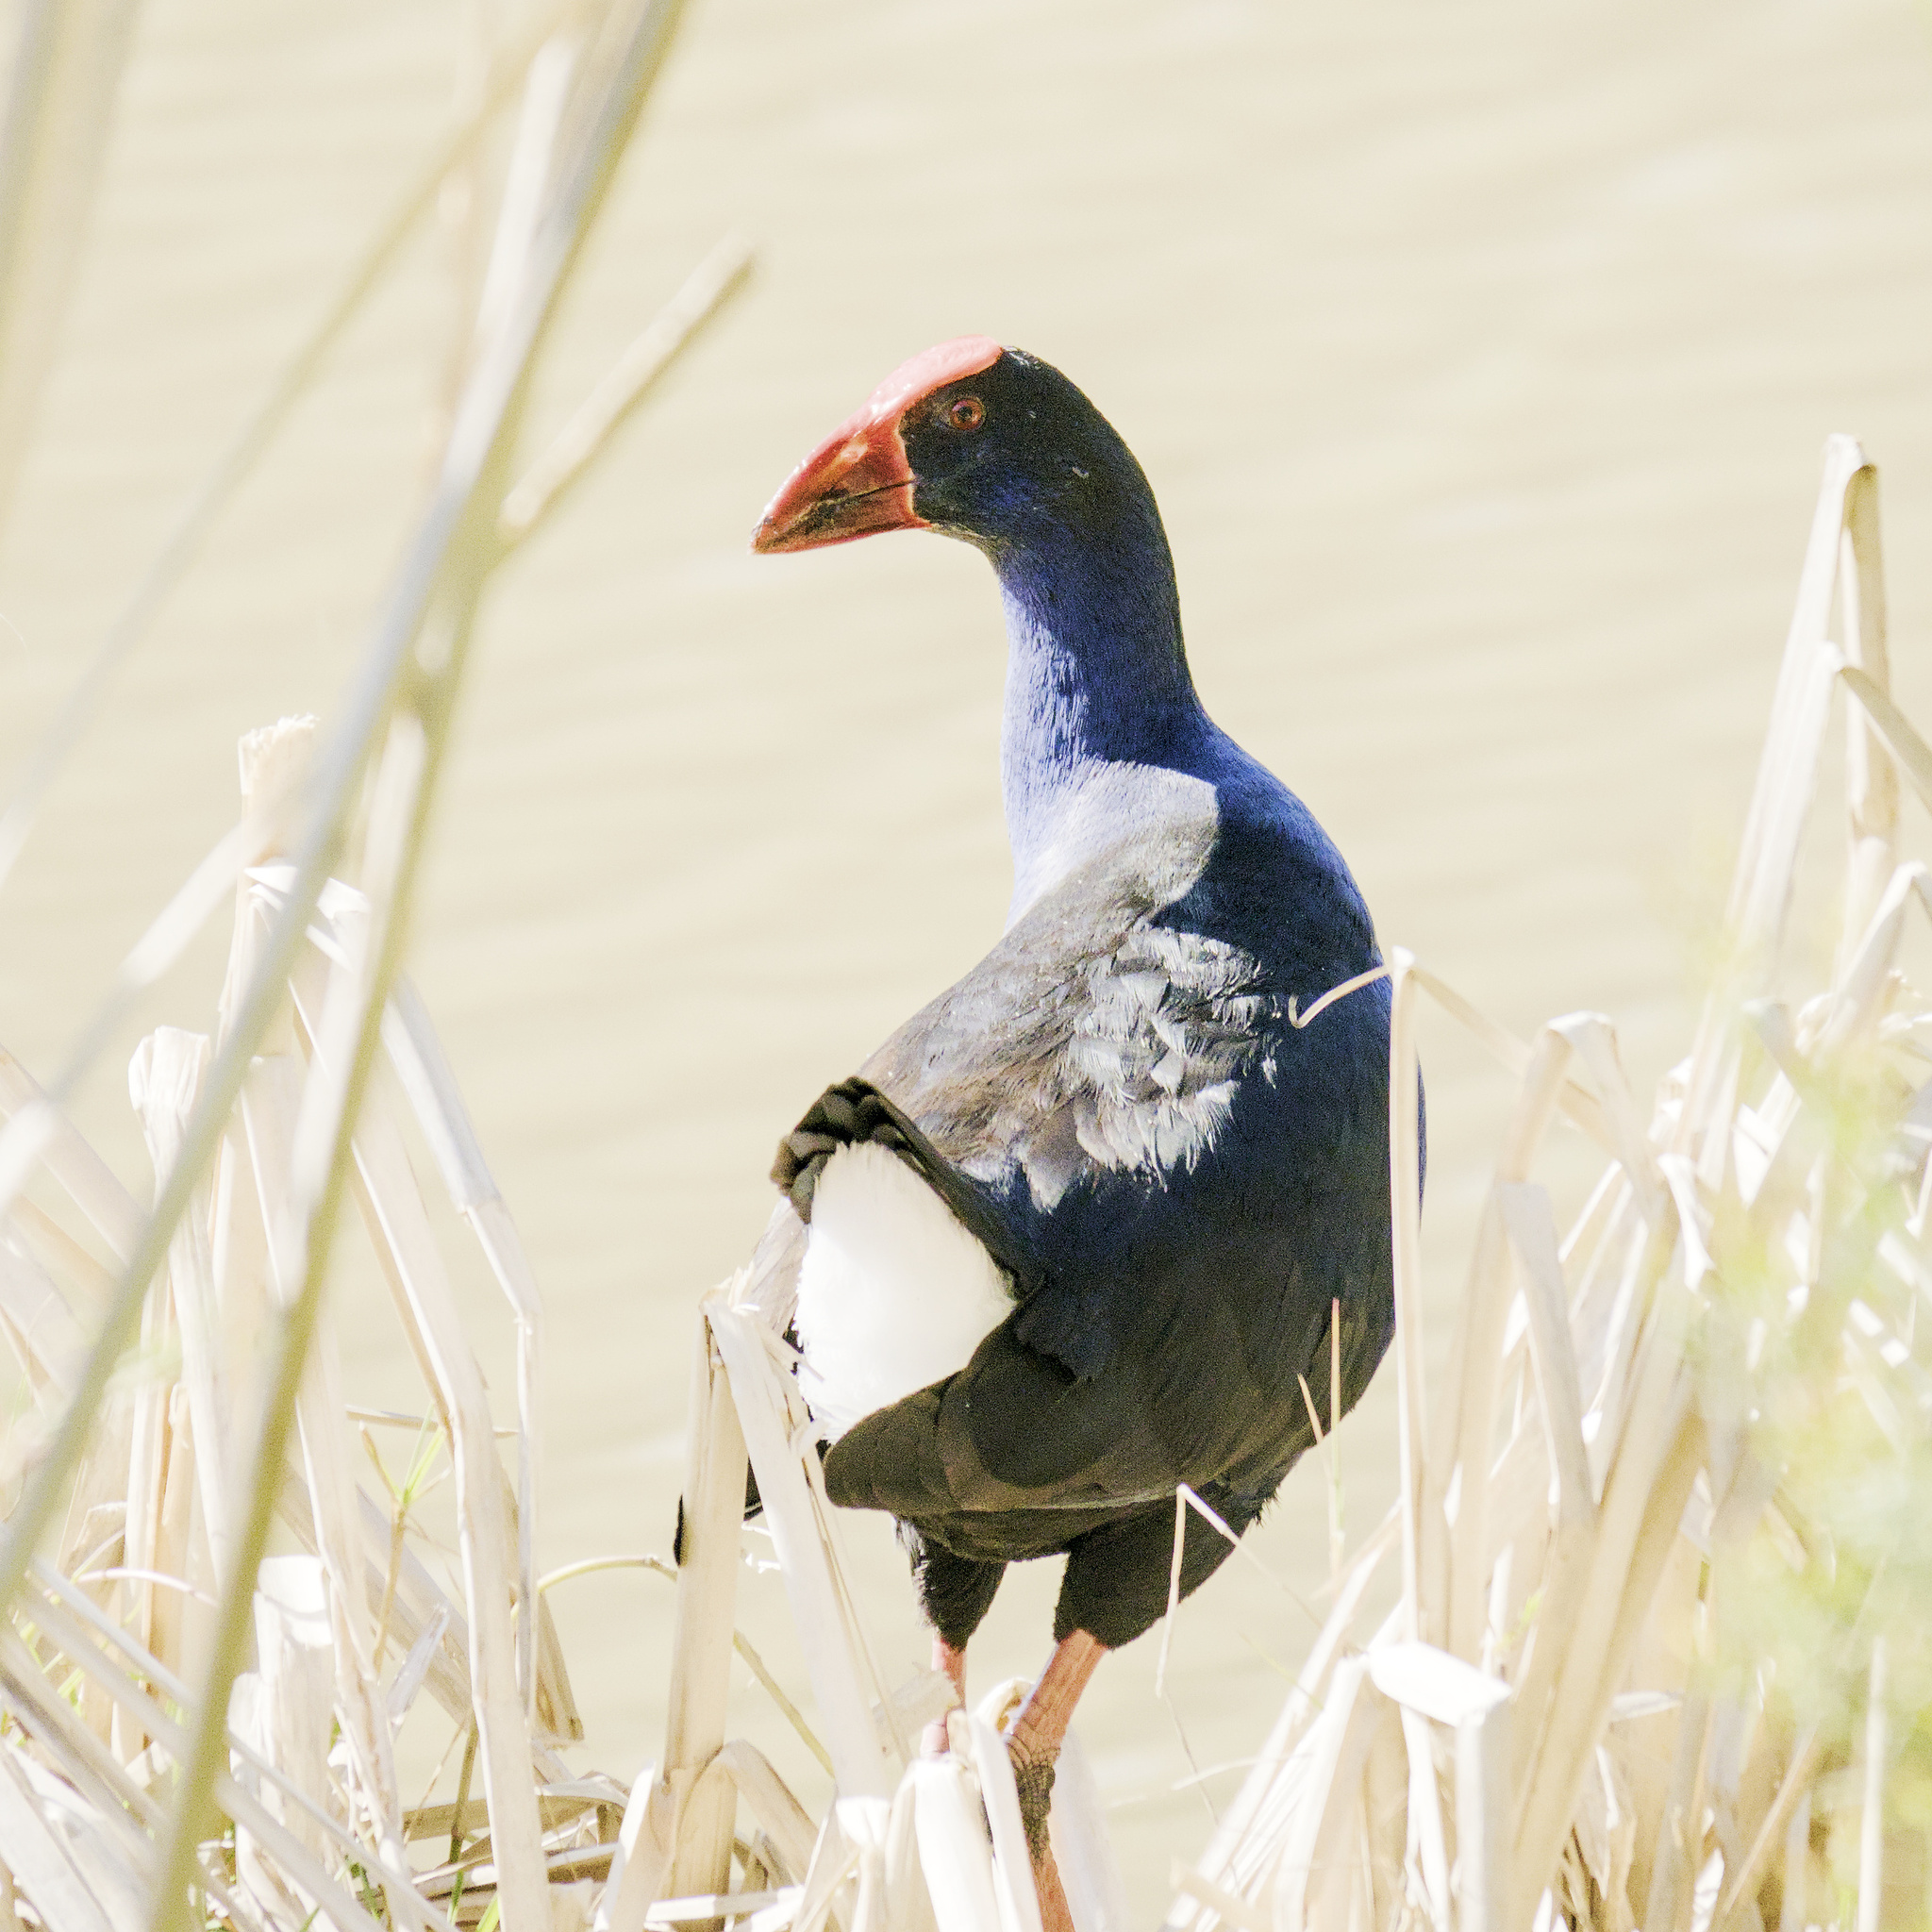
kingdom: Animalia
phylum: Chordata
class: Aves
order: Gruiformes
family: Rallidae
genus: Porphyrio
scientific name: Porphyrio melanotus
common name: Australasian swamphen
